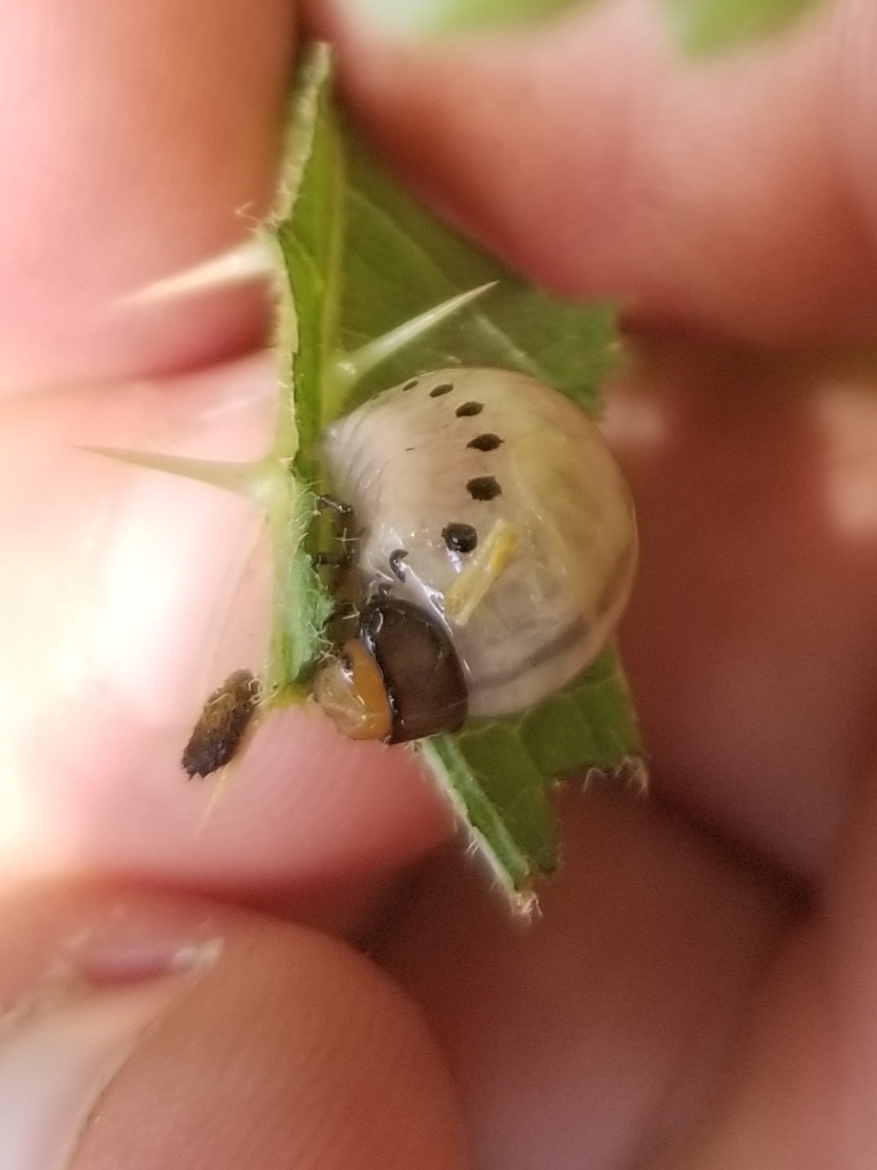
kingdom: Animalia
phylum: Arthropoda
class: Insecta
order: Coleoptera
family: Chrysomelidae
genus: Leptinotarsa
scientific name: Leptinotarsa juncta
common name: False potato beetle
